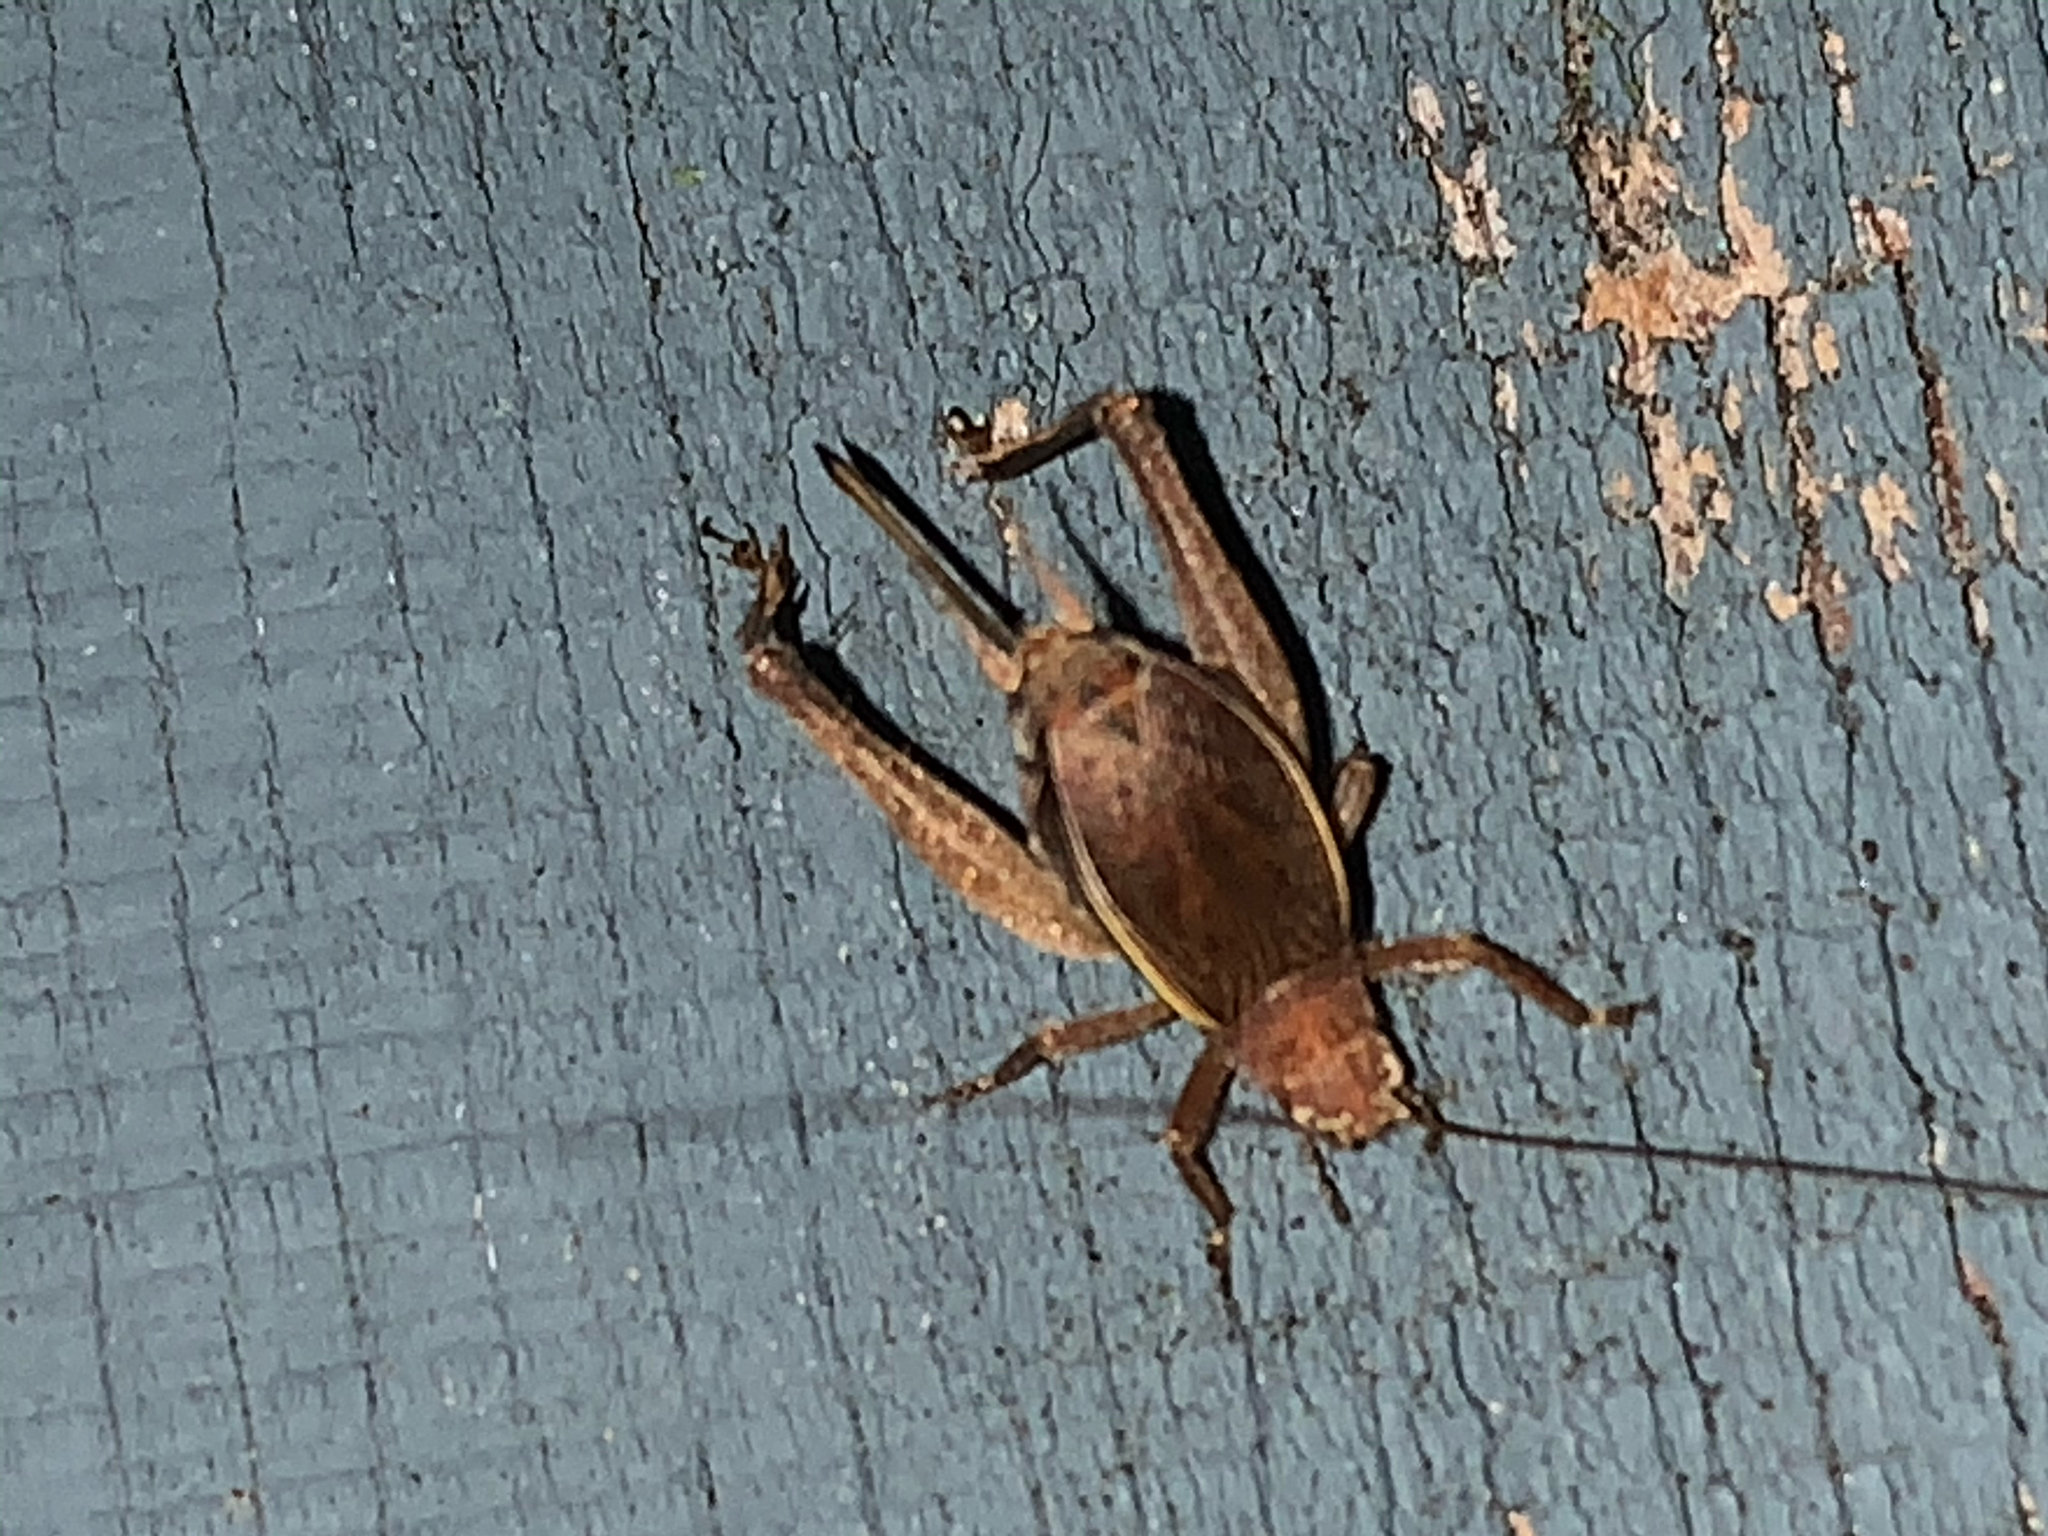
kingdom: Animalia
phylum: Arthropoda
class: Insecta
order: Orthoptera
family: Gryllidae
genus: Hapithus
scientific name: Hapithus agitator
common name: Restless bush cricket
